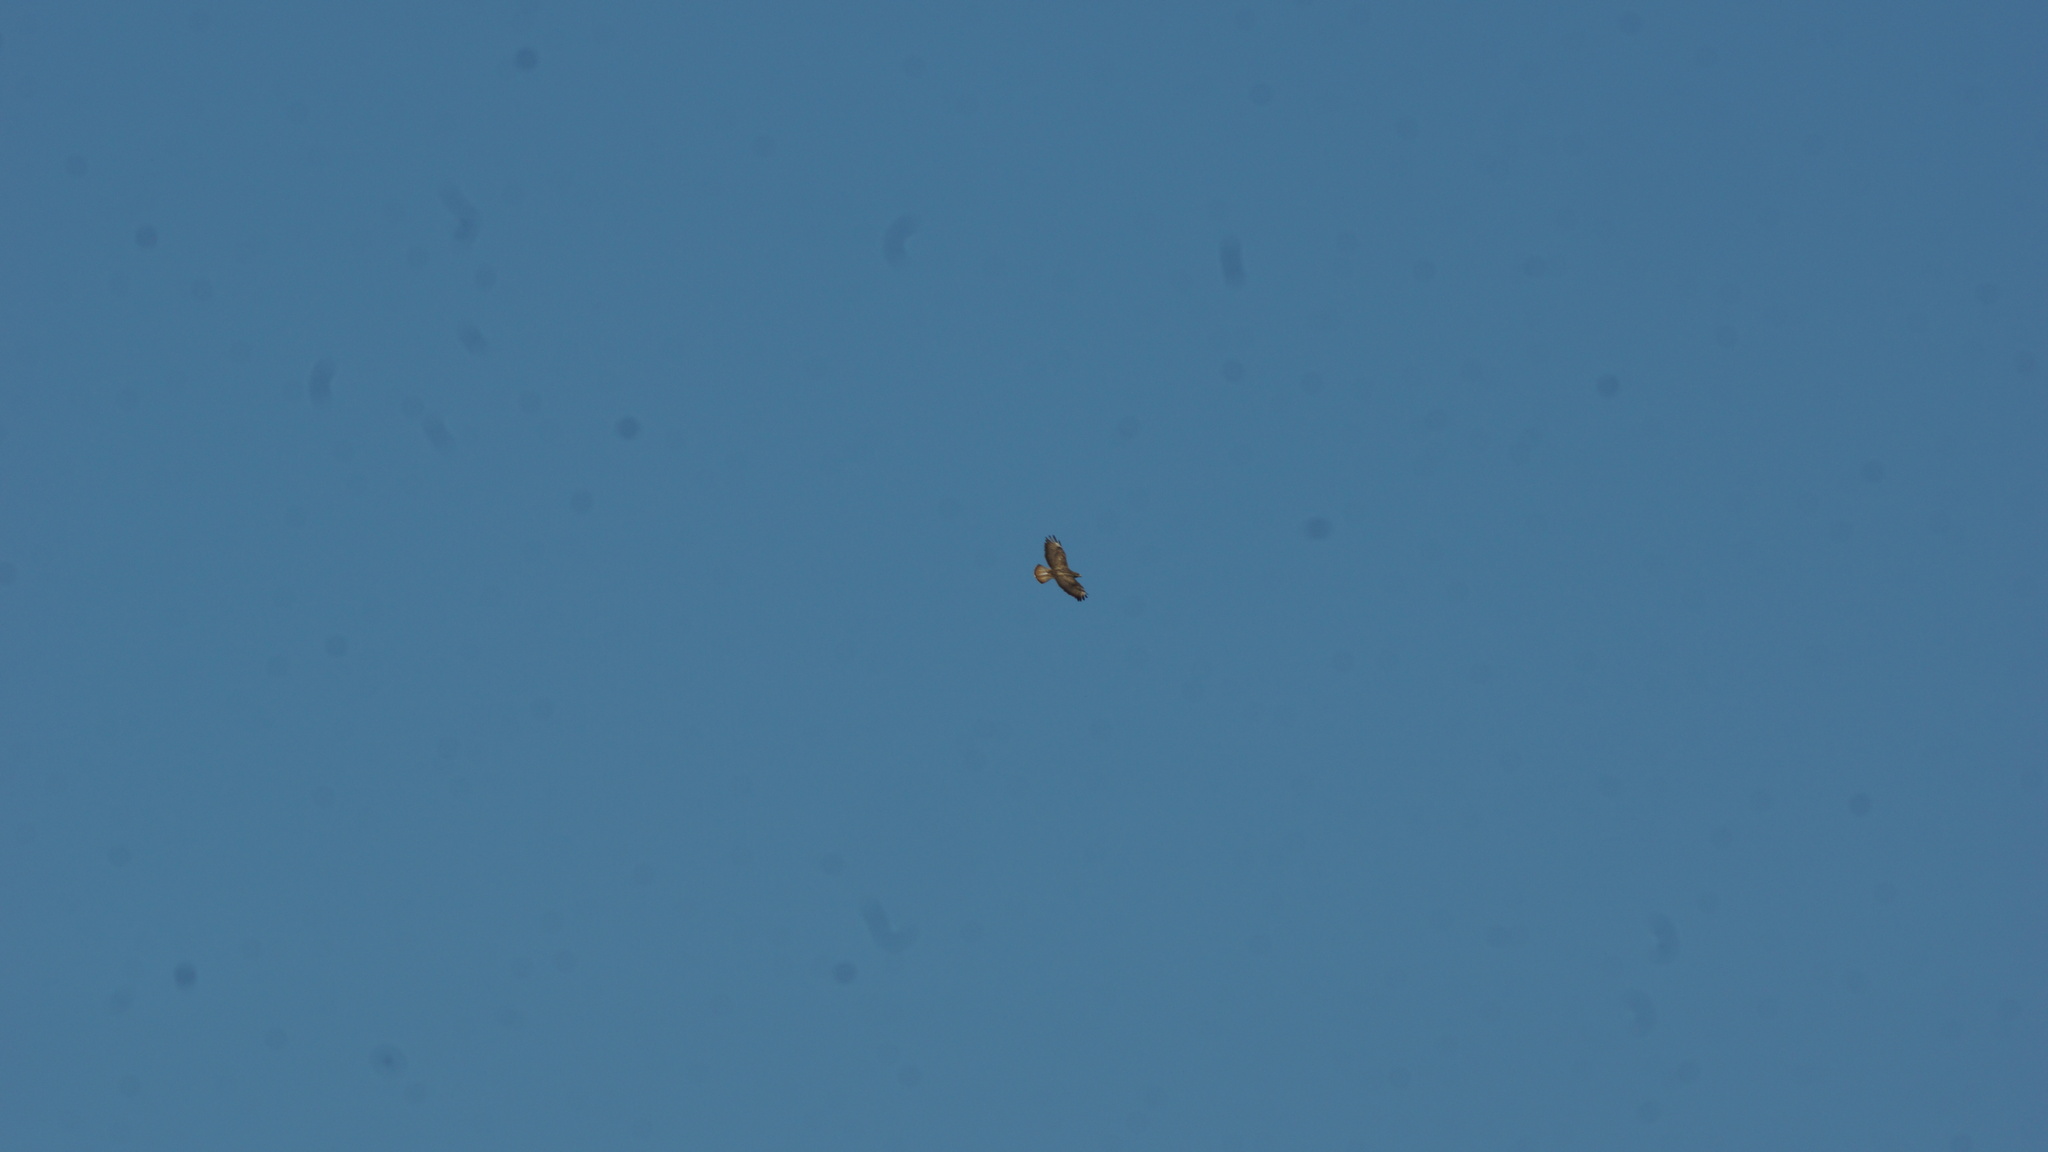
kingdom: Animalia
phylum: Chordata
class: Aves
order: Accipitriformes
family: Accipitridae
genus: Buteo
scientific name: Buteo buteo
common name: Common buzzard
